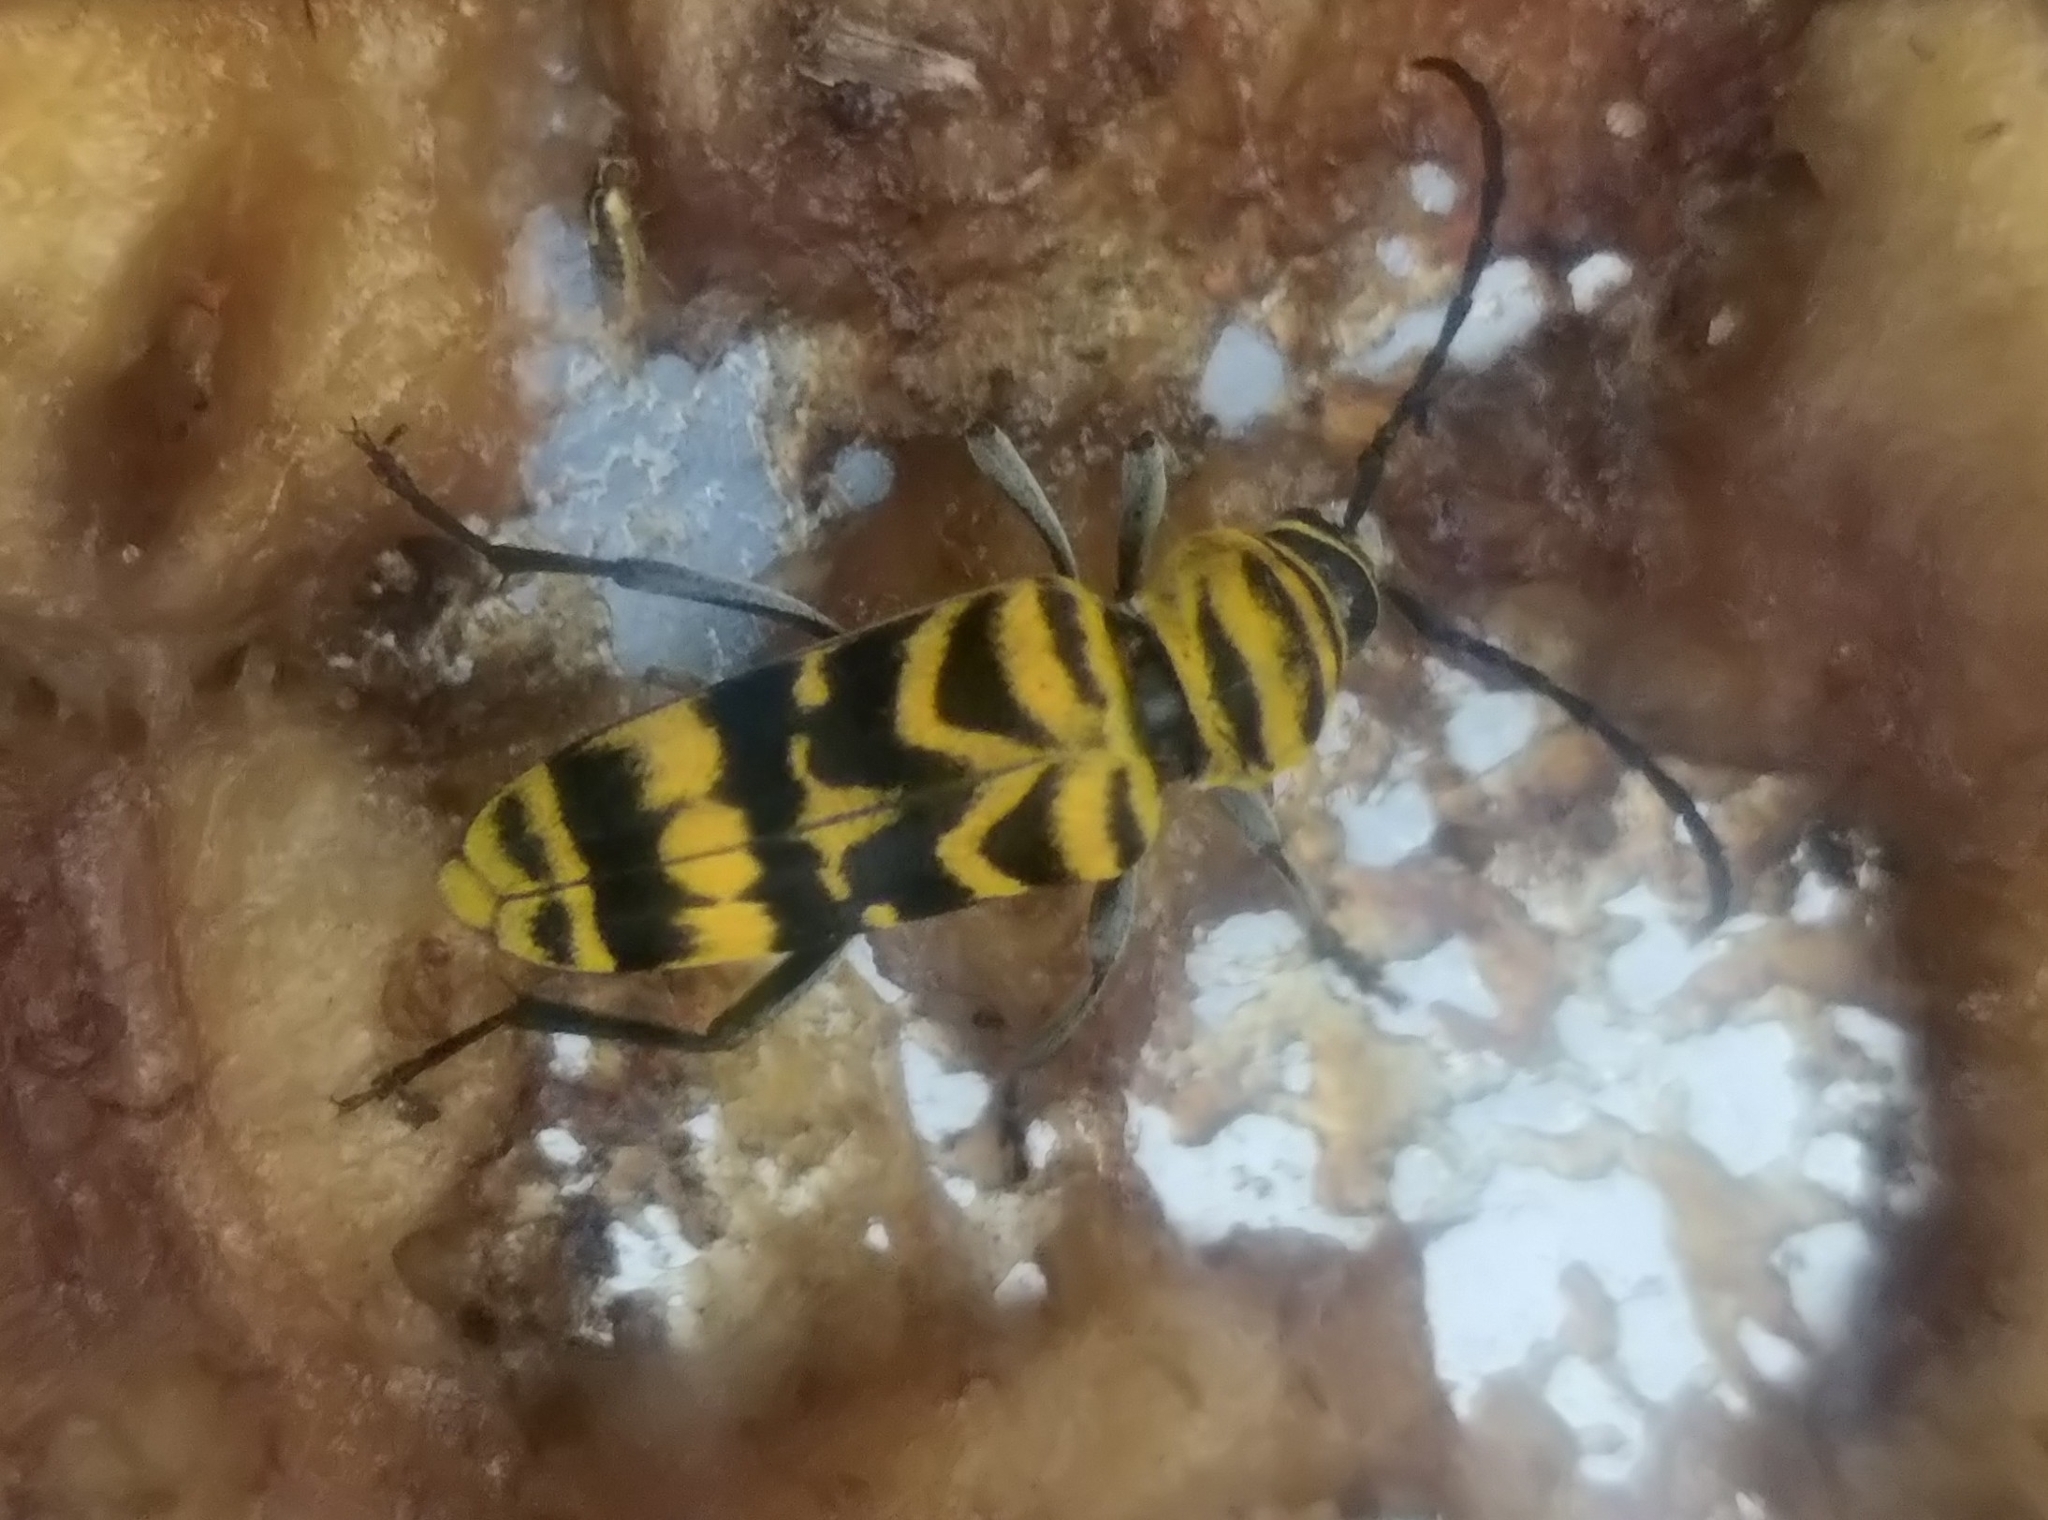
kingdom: Animalia
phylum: Arthropoda
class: Insecta
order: Coleoptera
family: Cerambycidae
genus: Megacyllene
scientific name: Megacyllene decora
